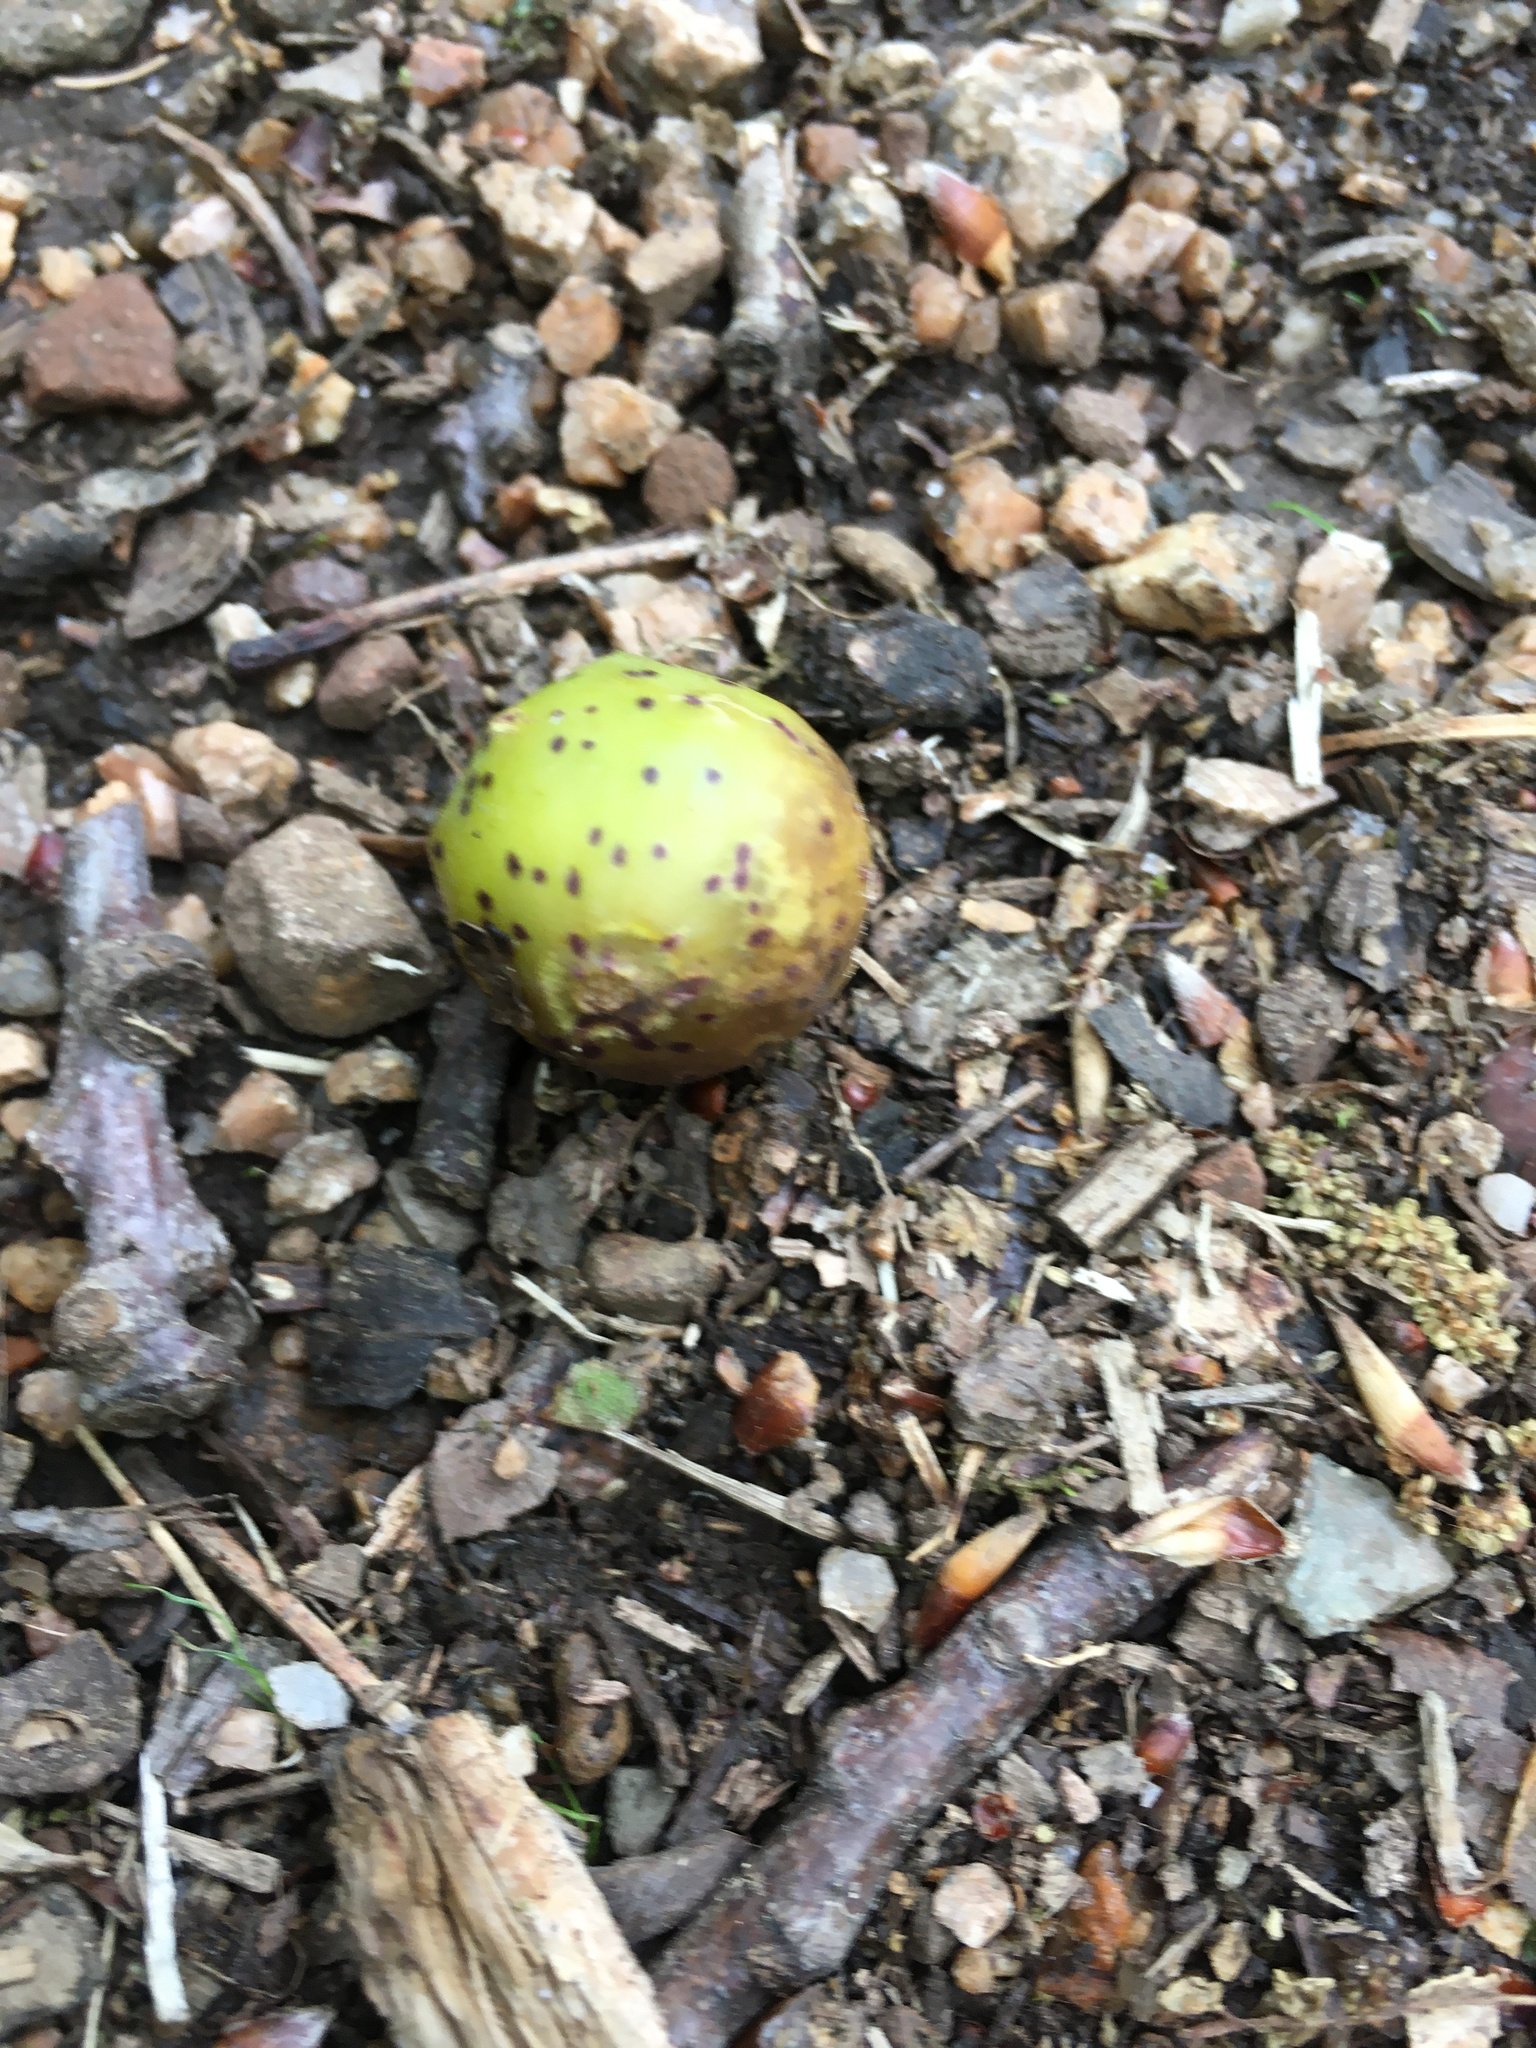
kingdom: Animalia
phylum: Arthropoda
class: Insecta
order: Hymenoptera
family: Cynipidae
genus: Amphibolips
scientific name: Amphibolips
